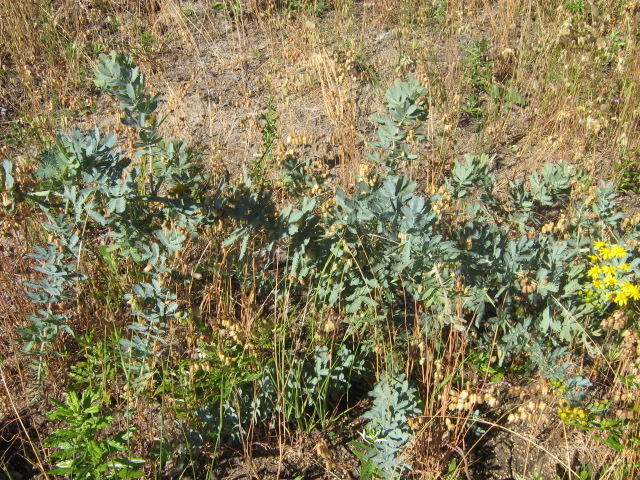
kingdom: Plantae
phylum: Tracheophyta
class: Magnoliopsida
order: Fabales
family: Fabaceae
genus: Acacia
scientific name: Acacia baileyana
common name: Cootamundra wattle
